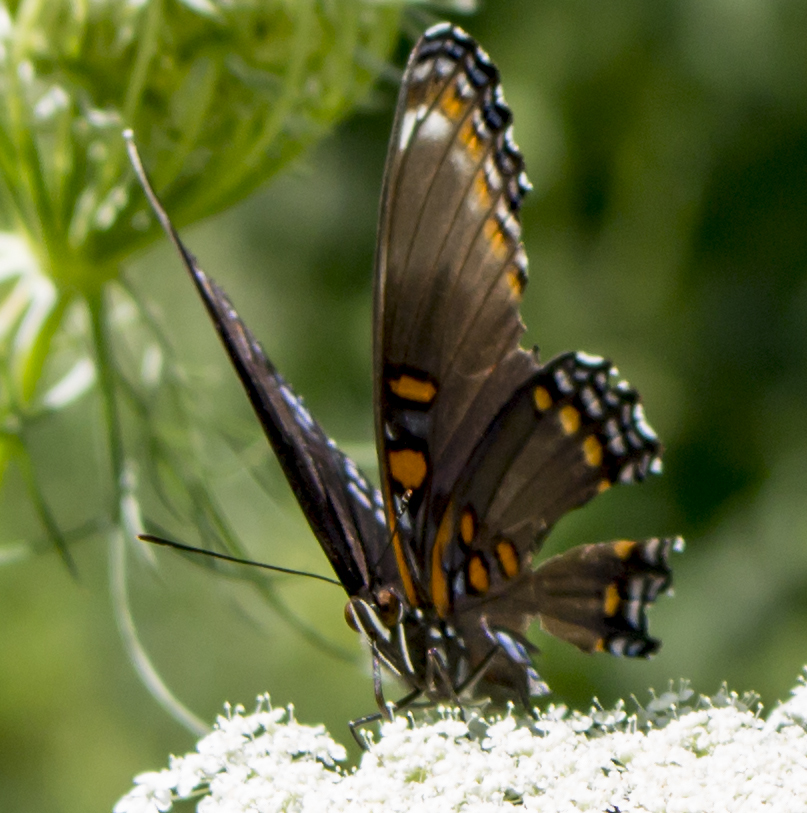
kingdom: Animalia
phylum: Arthropoda
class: Insecta
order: Lepidoptera
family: Nymphalidae
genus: Limenitis
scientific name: Limenitis astyanax
